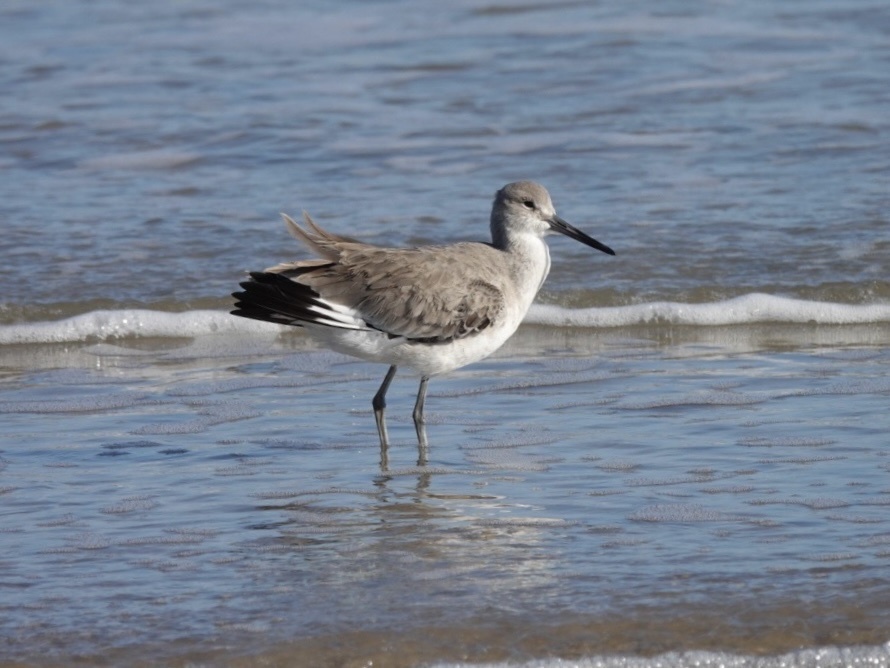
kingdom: Animalia
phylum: Chordata
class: Aves
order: Charadriiformes
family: Scolopacidae
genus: Tringa
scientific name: Tringa semipalmata
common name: Willet
